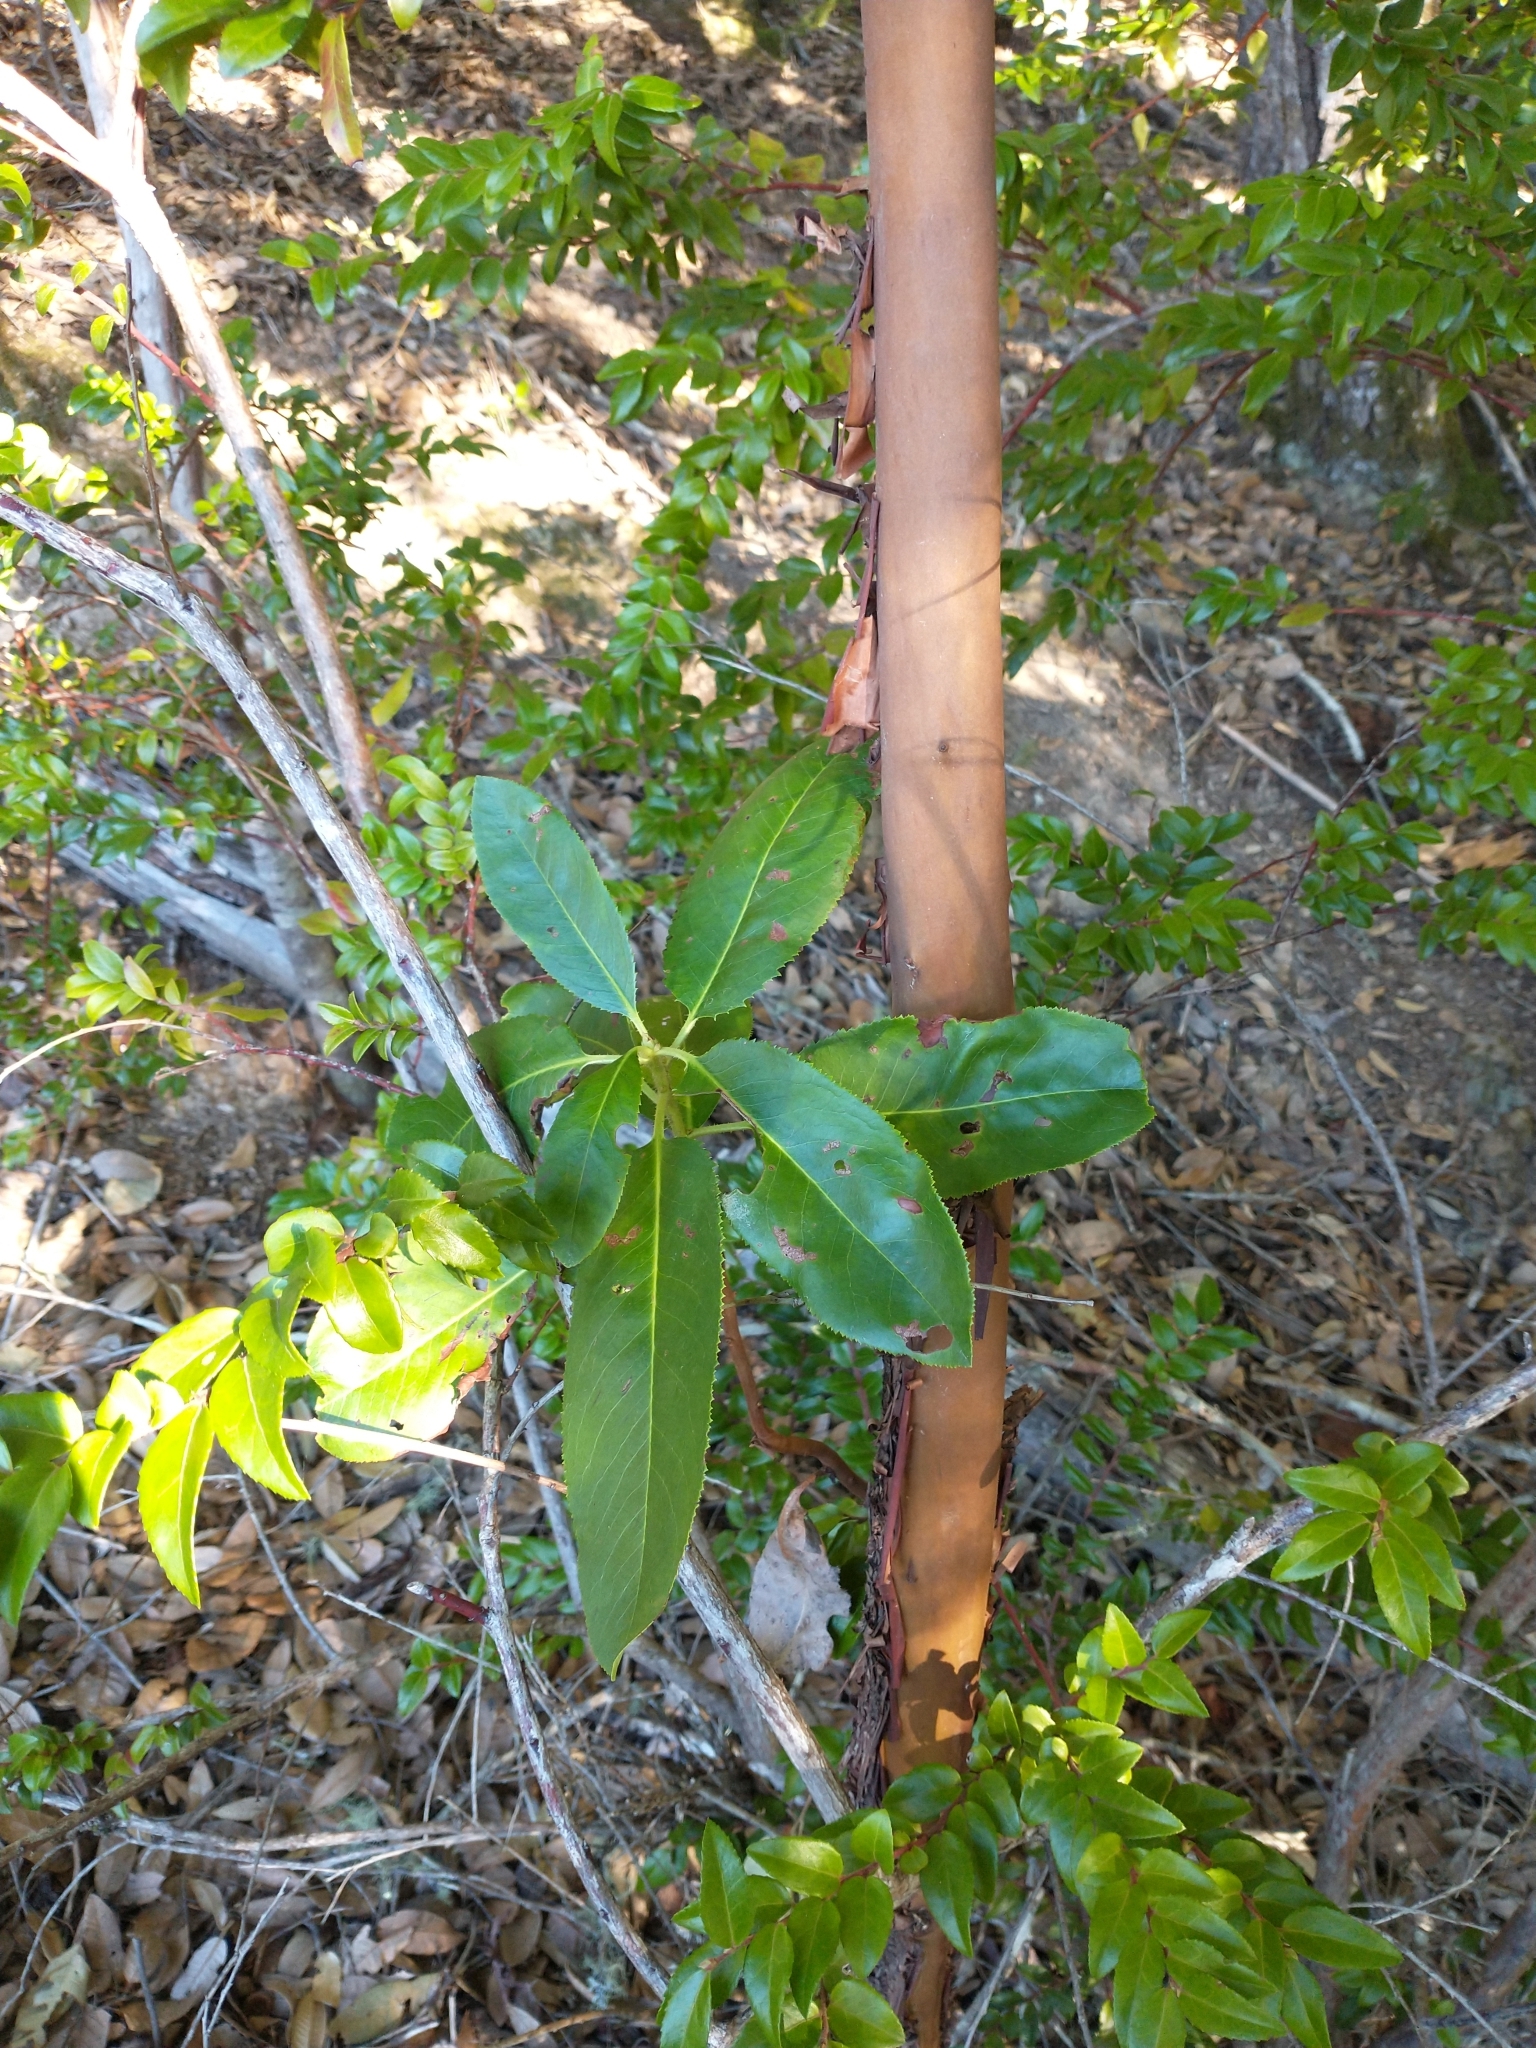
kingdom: Plantae
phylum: Tracheophyta
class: Magnoliopsida
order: Ericales
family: Ericaceae
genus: Arbutus
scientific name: Arbutus menziesii
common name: Pacific madrone
